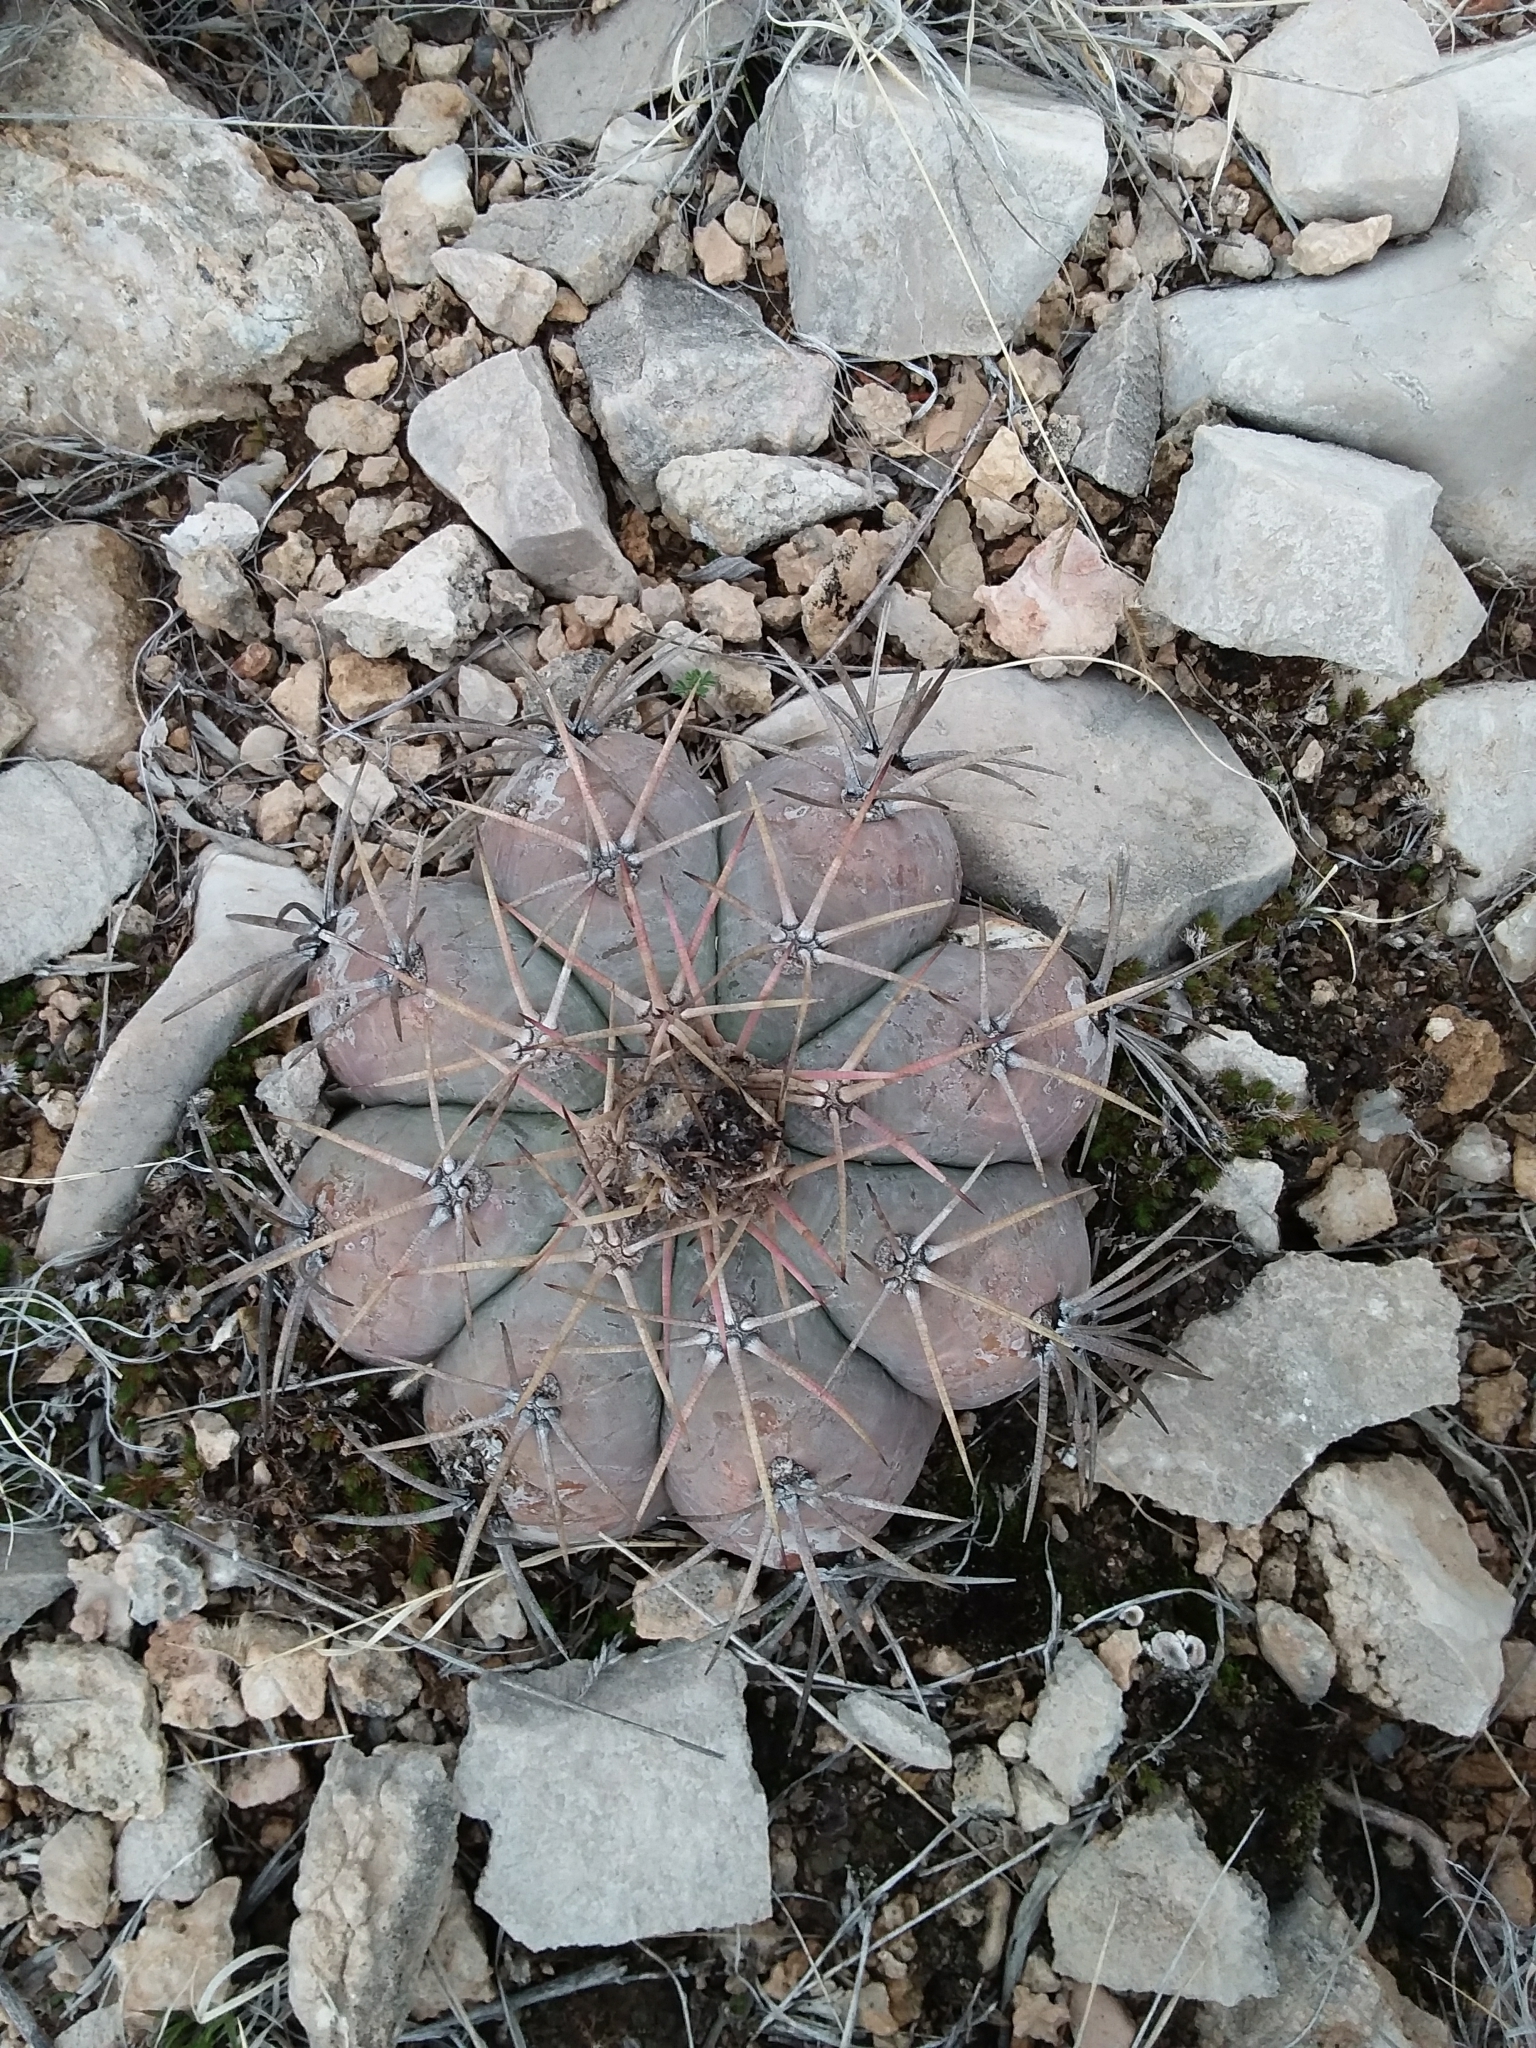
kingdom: Plantae
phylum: Tracheophyta
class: Magnoliopsida
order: Caryophyllales
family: Cactaceae
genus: Echinocactus
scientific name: Echinocactus horizonthalonius
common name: Devilshead
